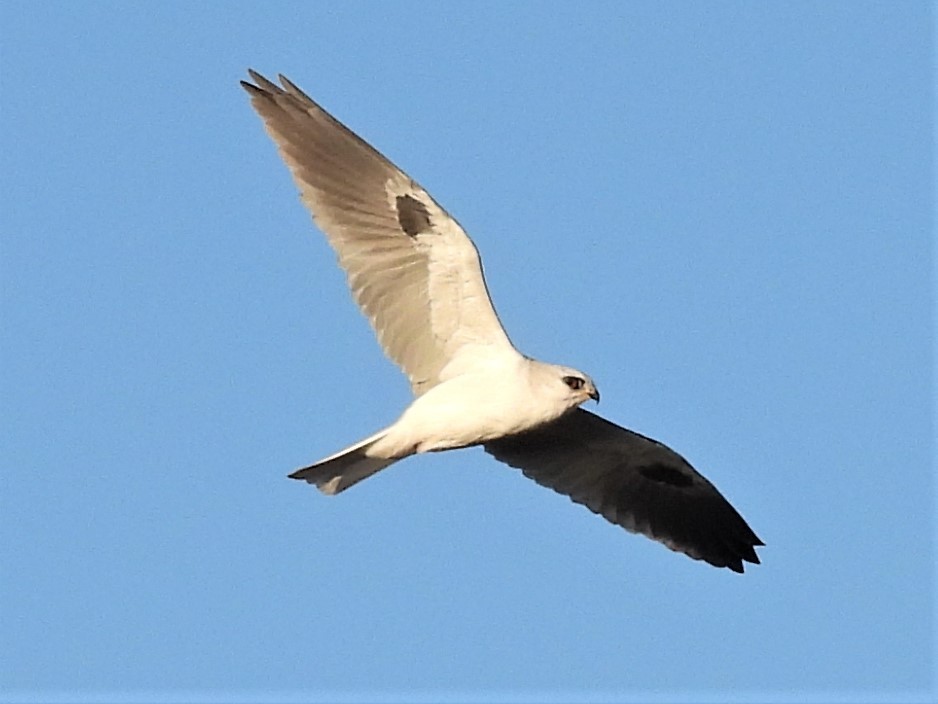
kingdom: Animalia
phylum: Chordata
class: Aves
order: Accipitriformes
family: Accipitridae
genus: Elanus
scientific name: Elanus leucurus
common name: White-tailed kite
